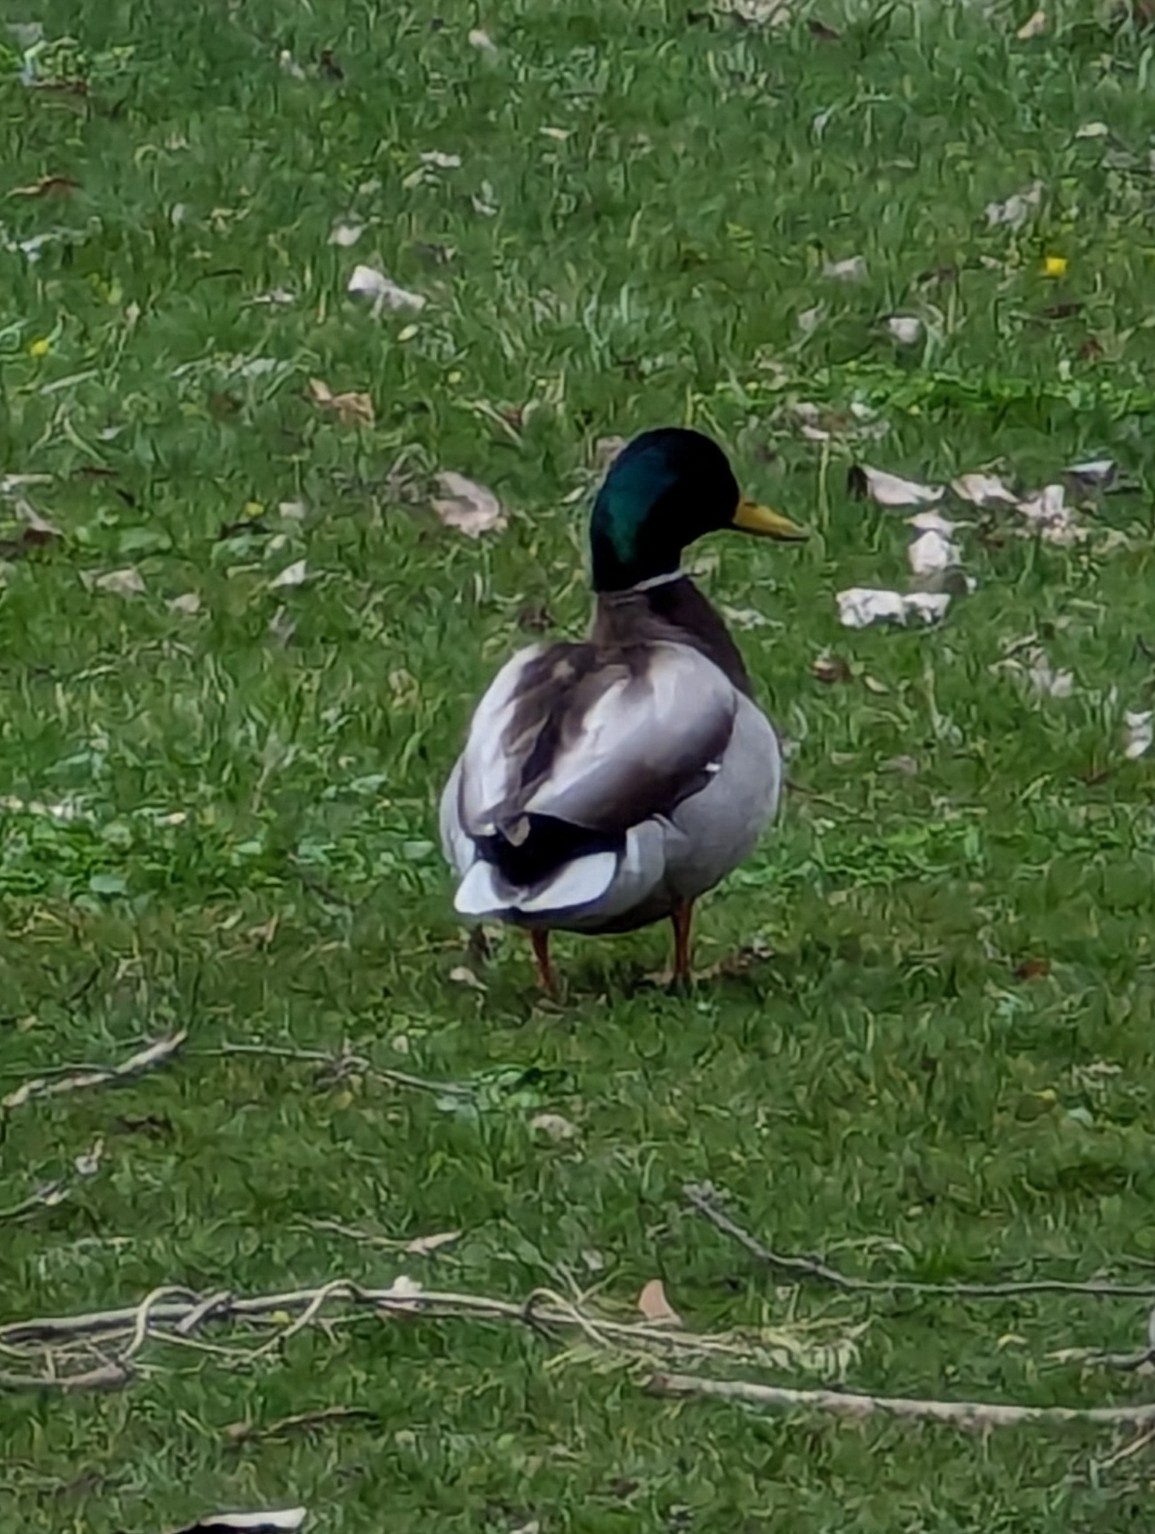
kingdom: Animalia
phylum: Chordata
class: Aves
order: Anseriformes
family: Anatidae
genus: Anas
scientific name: Anas platyrhynchos
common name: Mallard
